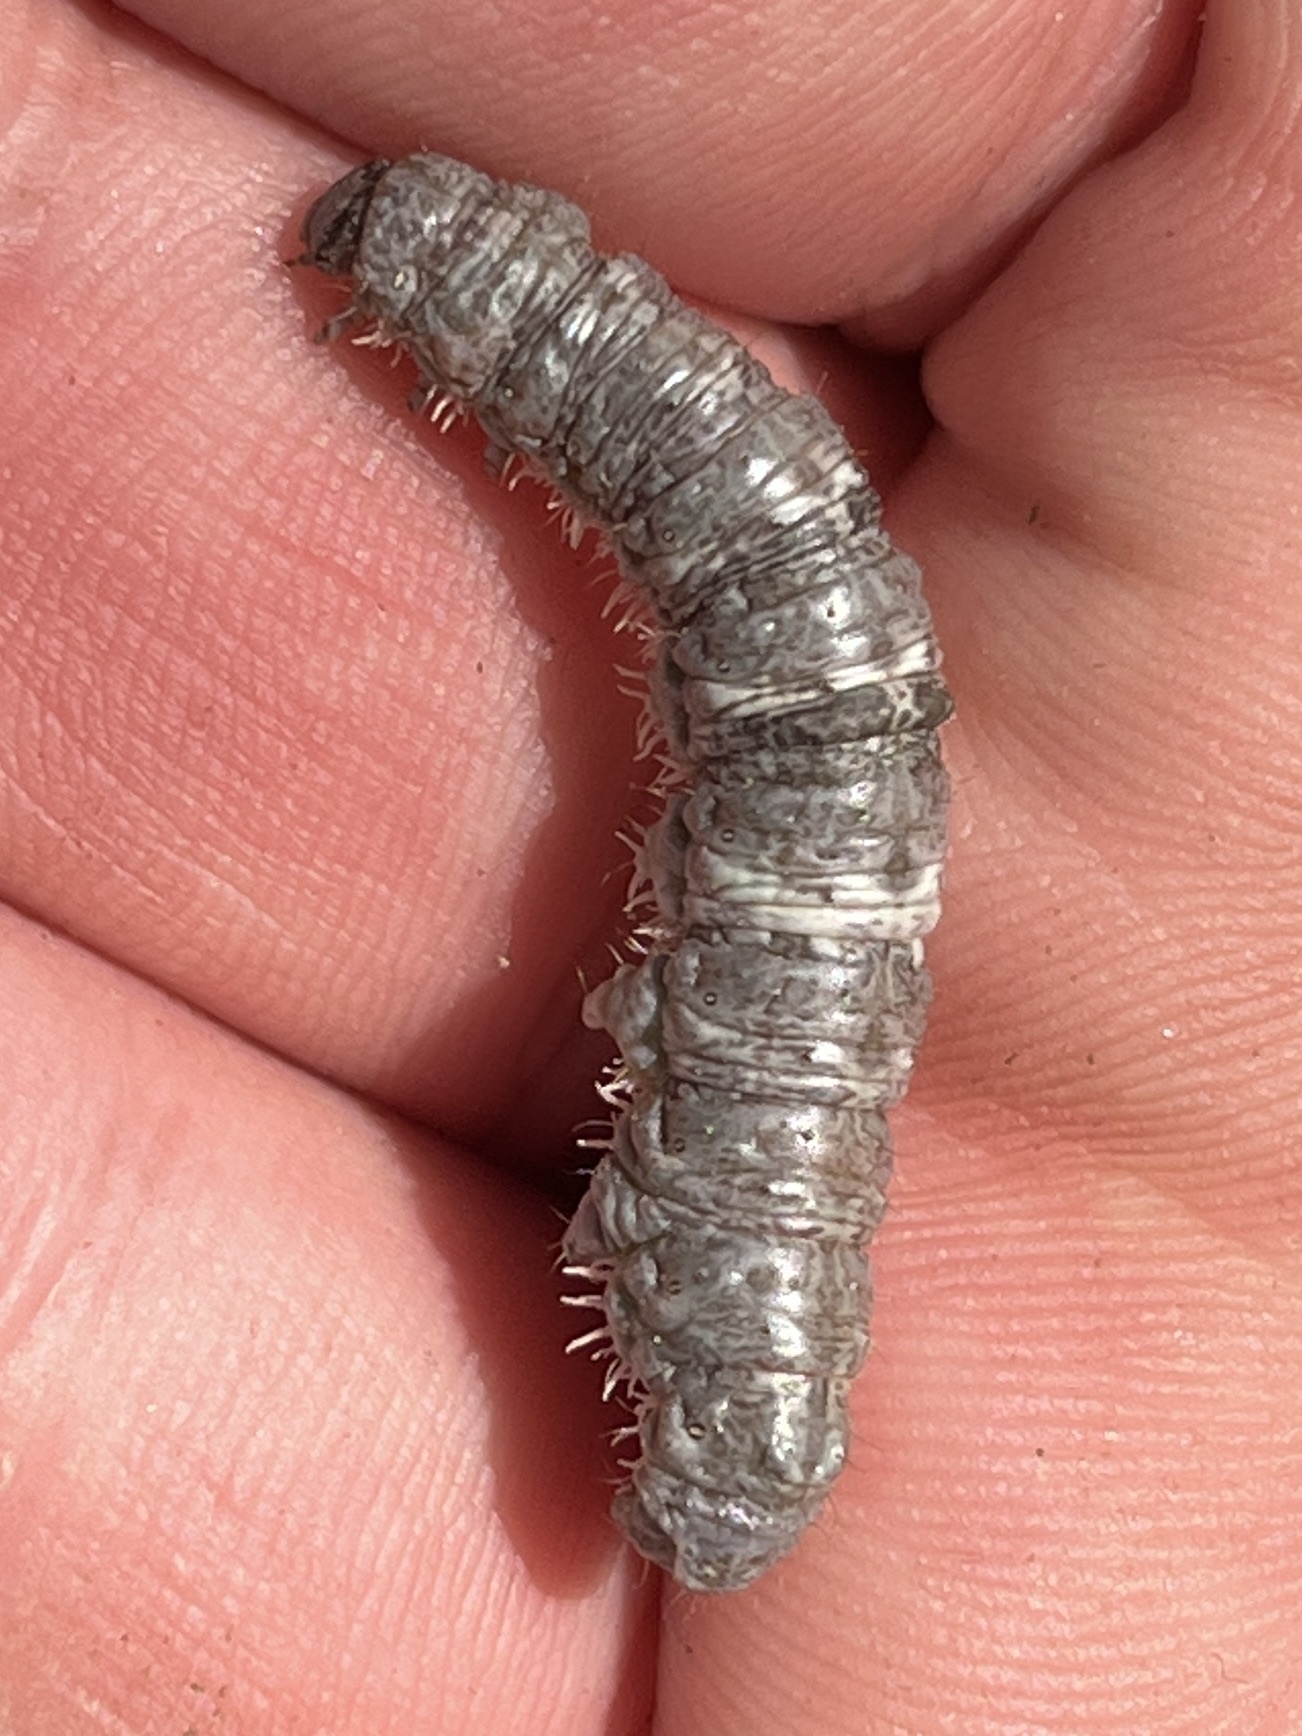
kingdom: Animalia
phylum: Arthropoda
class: Insecta
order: Lepidoptera
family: Geometridae
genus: Campaea
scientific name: Campaea perlata
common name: Fringed looper
